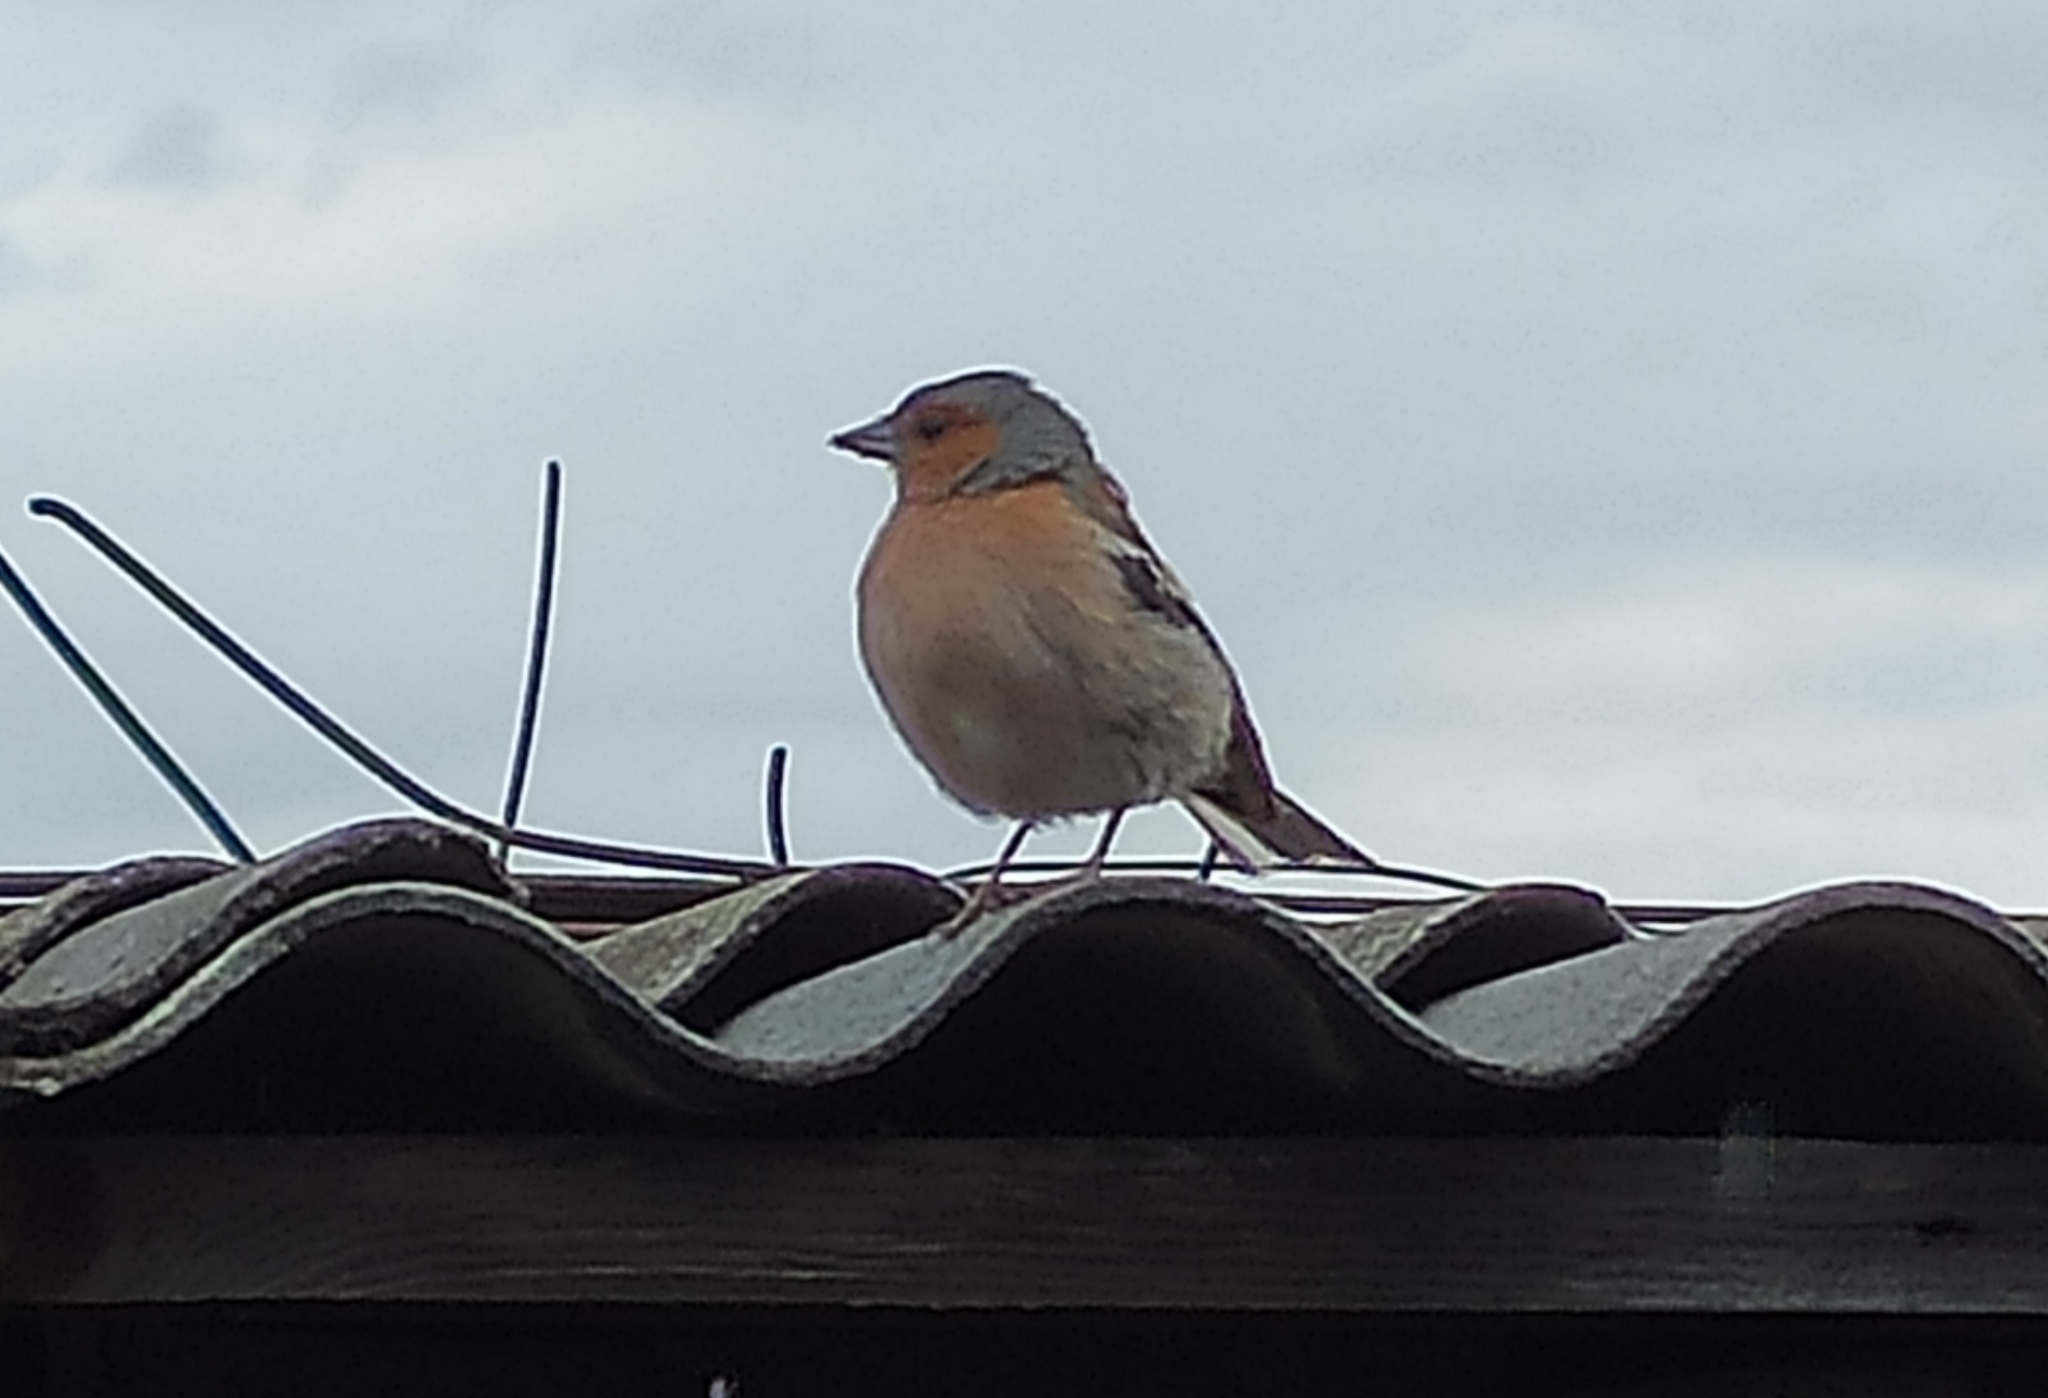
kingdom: Animalia
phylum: Chordata
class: Aves
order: Passeriformes
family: Fringillidae
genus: Fringilla
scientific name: Fringilla coelebs
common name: Common chaffinch
